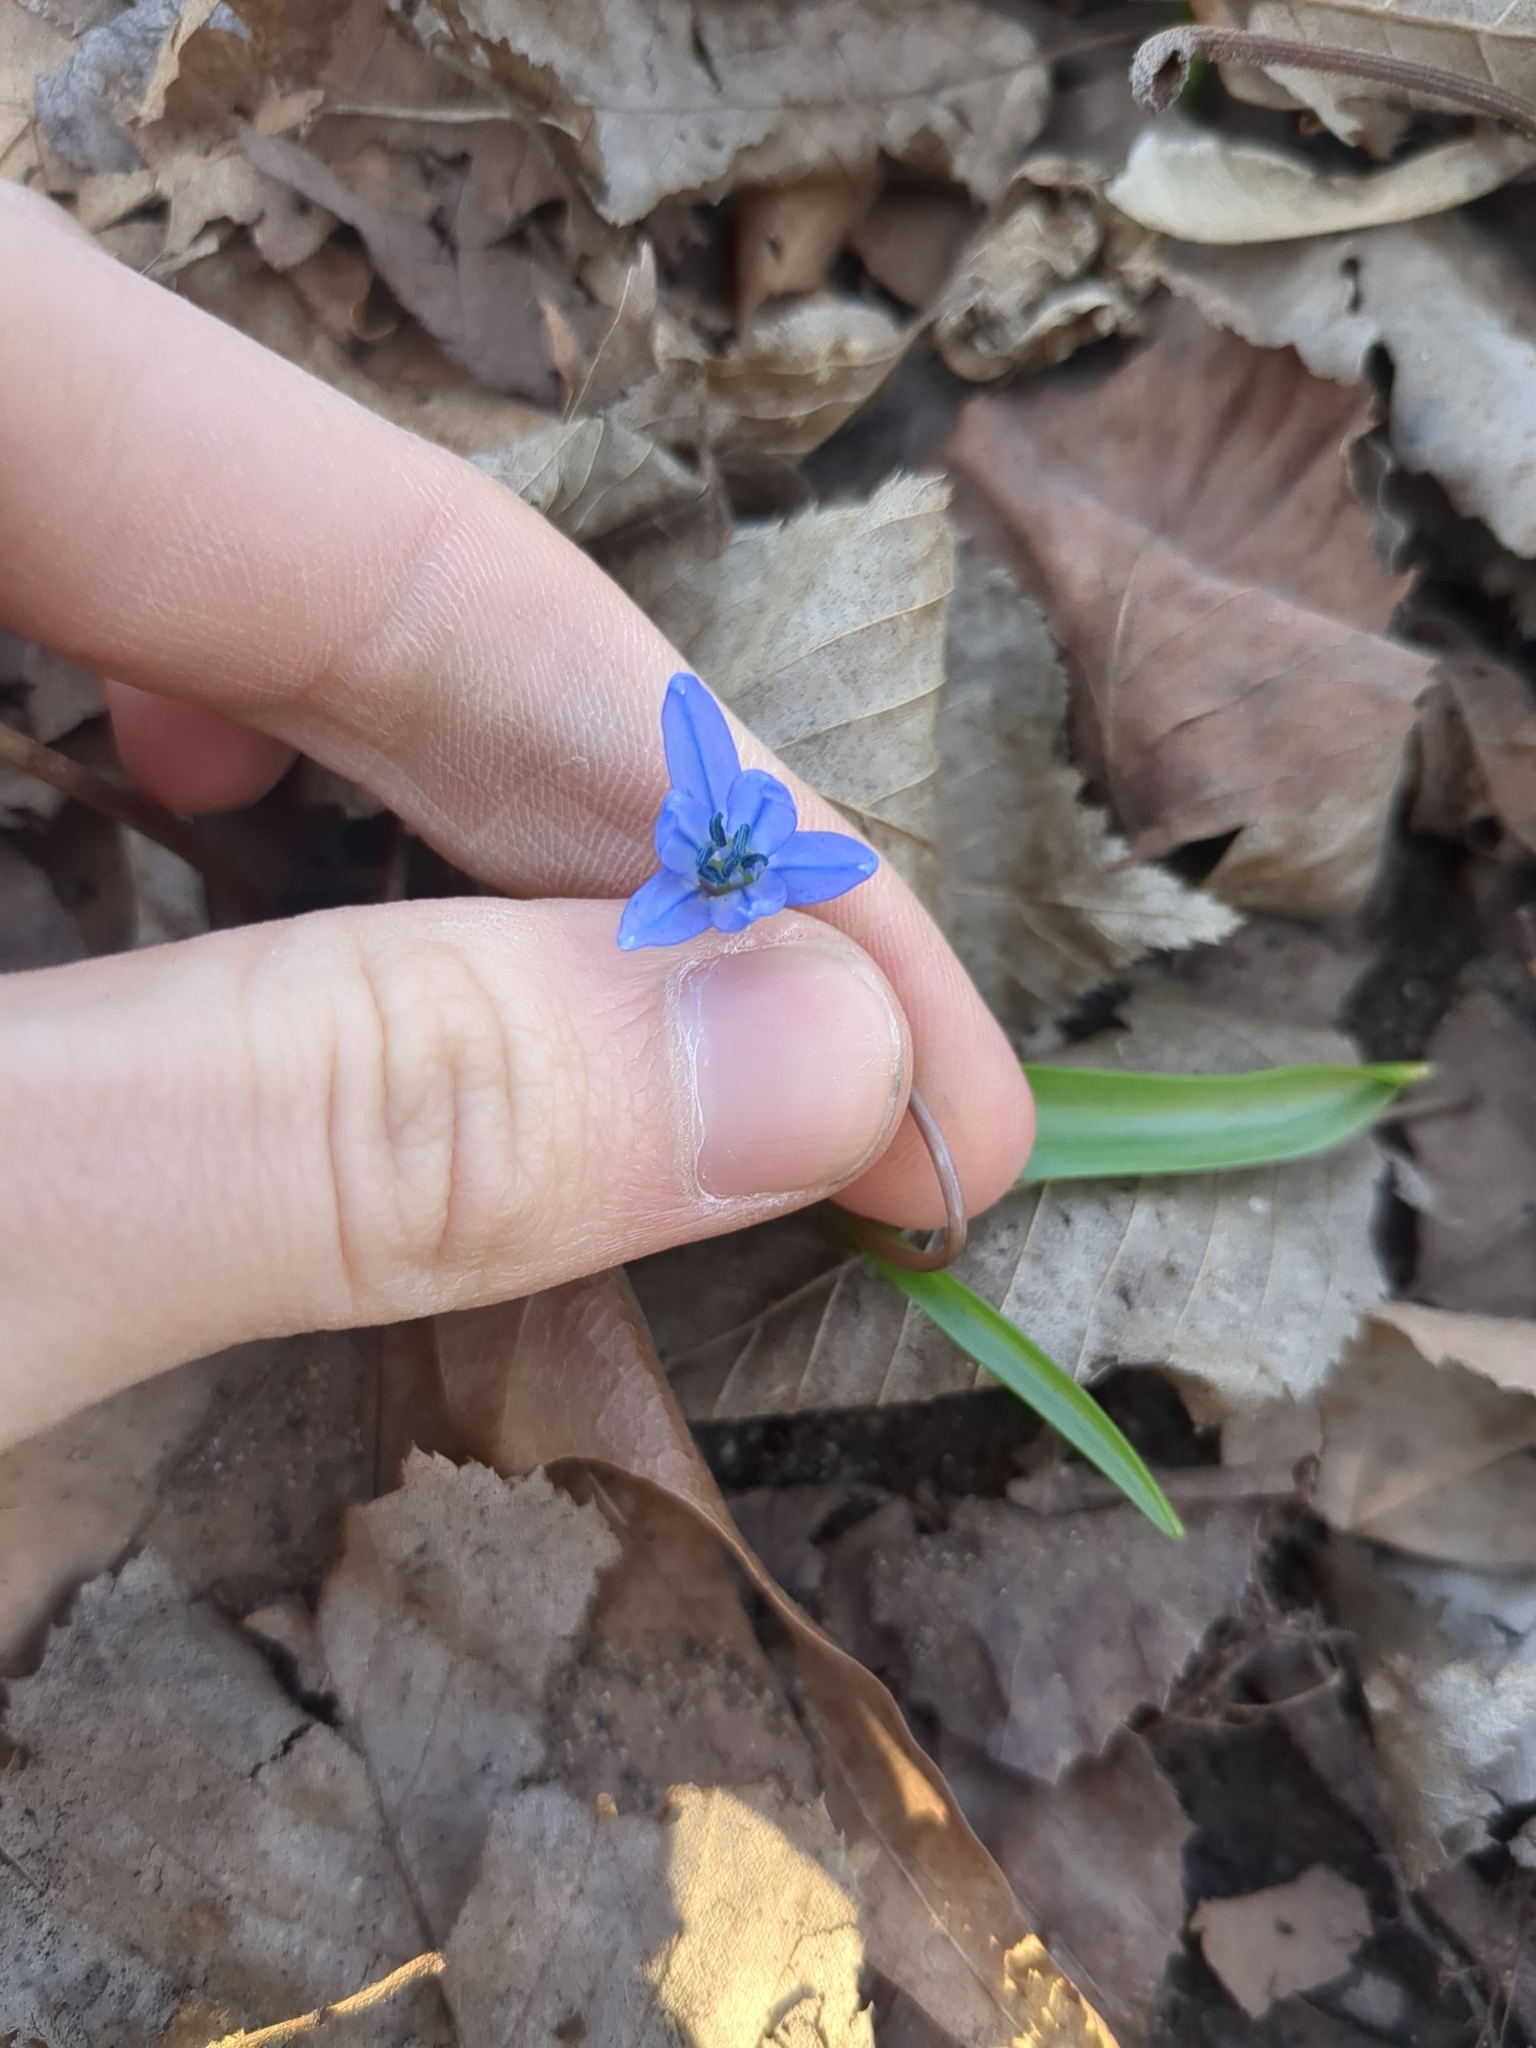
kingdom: Plantae
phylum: Tracheophyta
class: Liliopsida
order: Asparagales
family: Asparagaceae
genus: Scilla
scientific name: Scilla siberica
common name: Siberian squill
